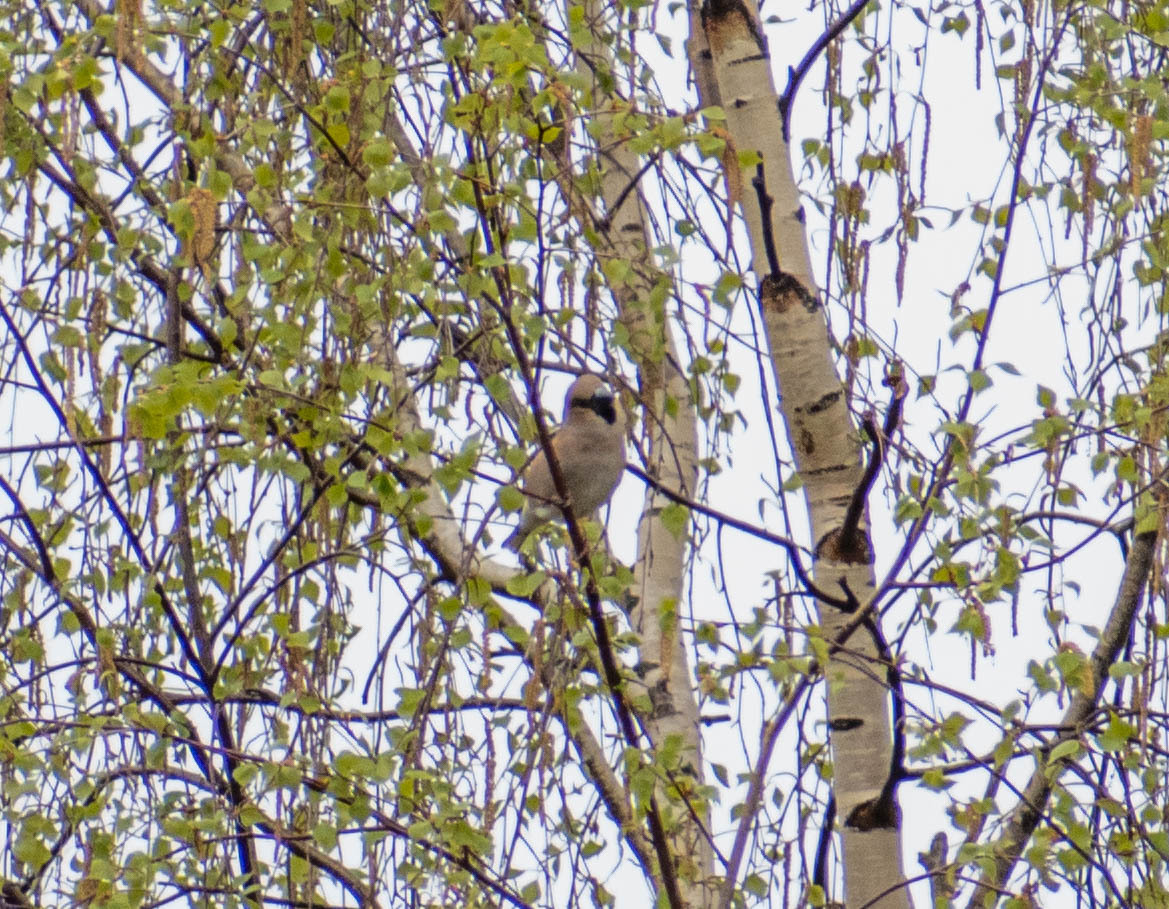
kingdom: Animalia
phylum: Chordata
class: Aves
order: Passeriformes
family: Fringillidae
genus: Coccothraustes
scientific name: Coccothraustes coccothraustes
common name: Hawfinch
